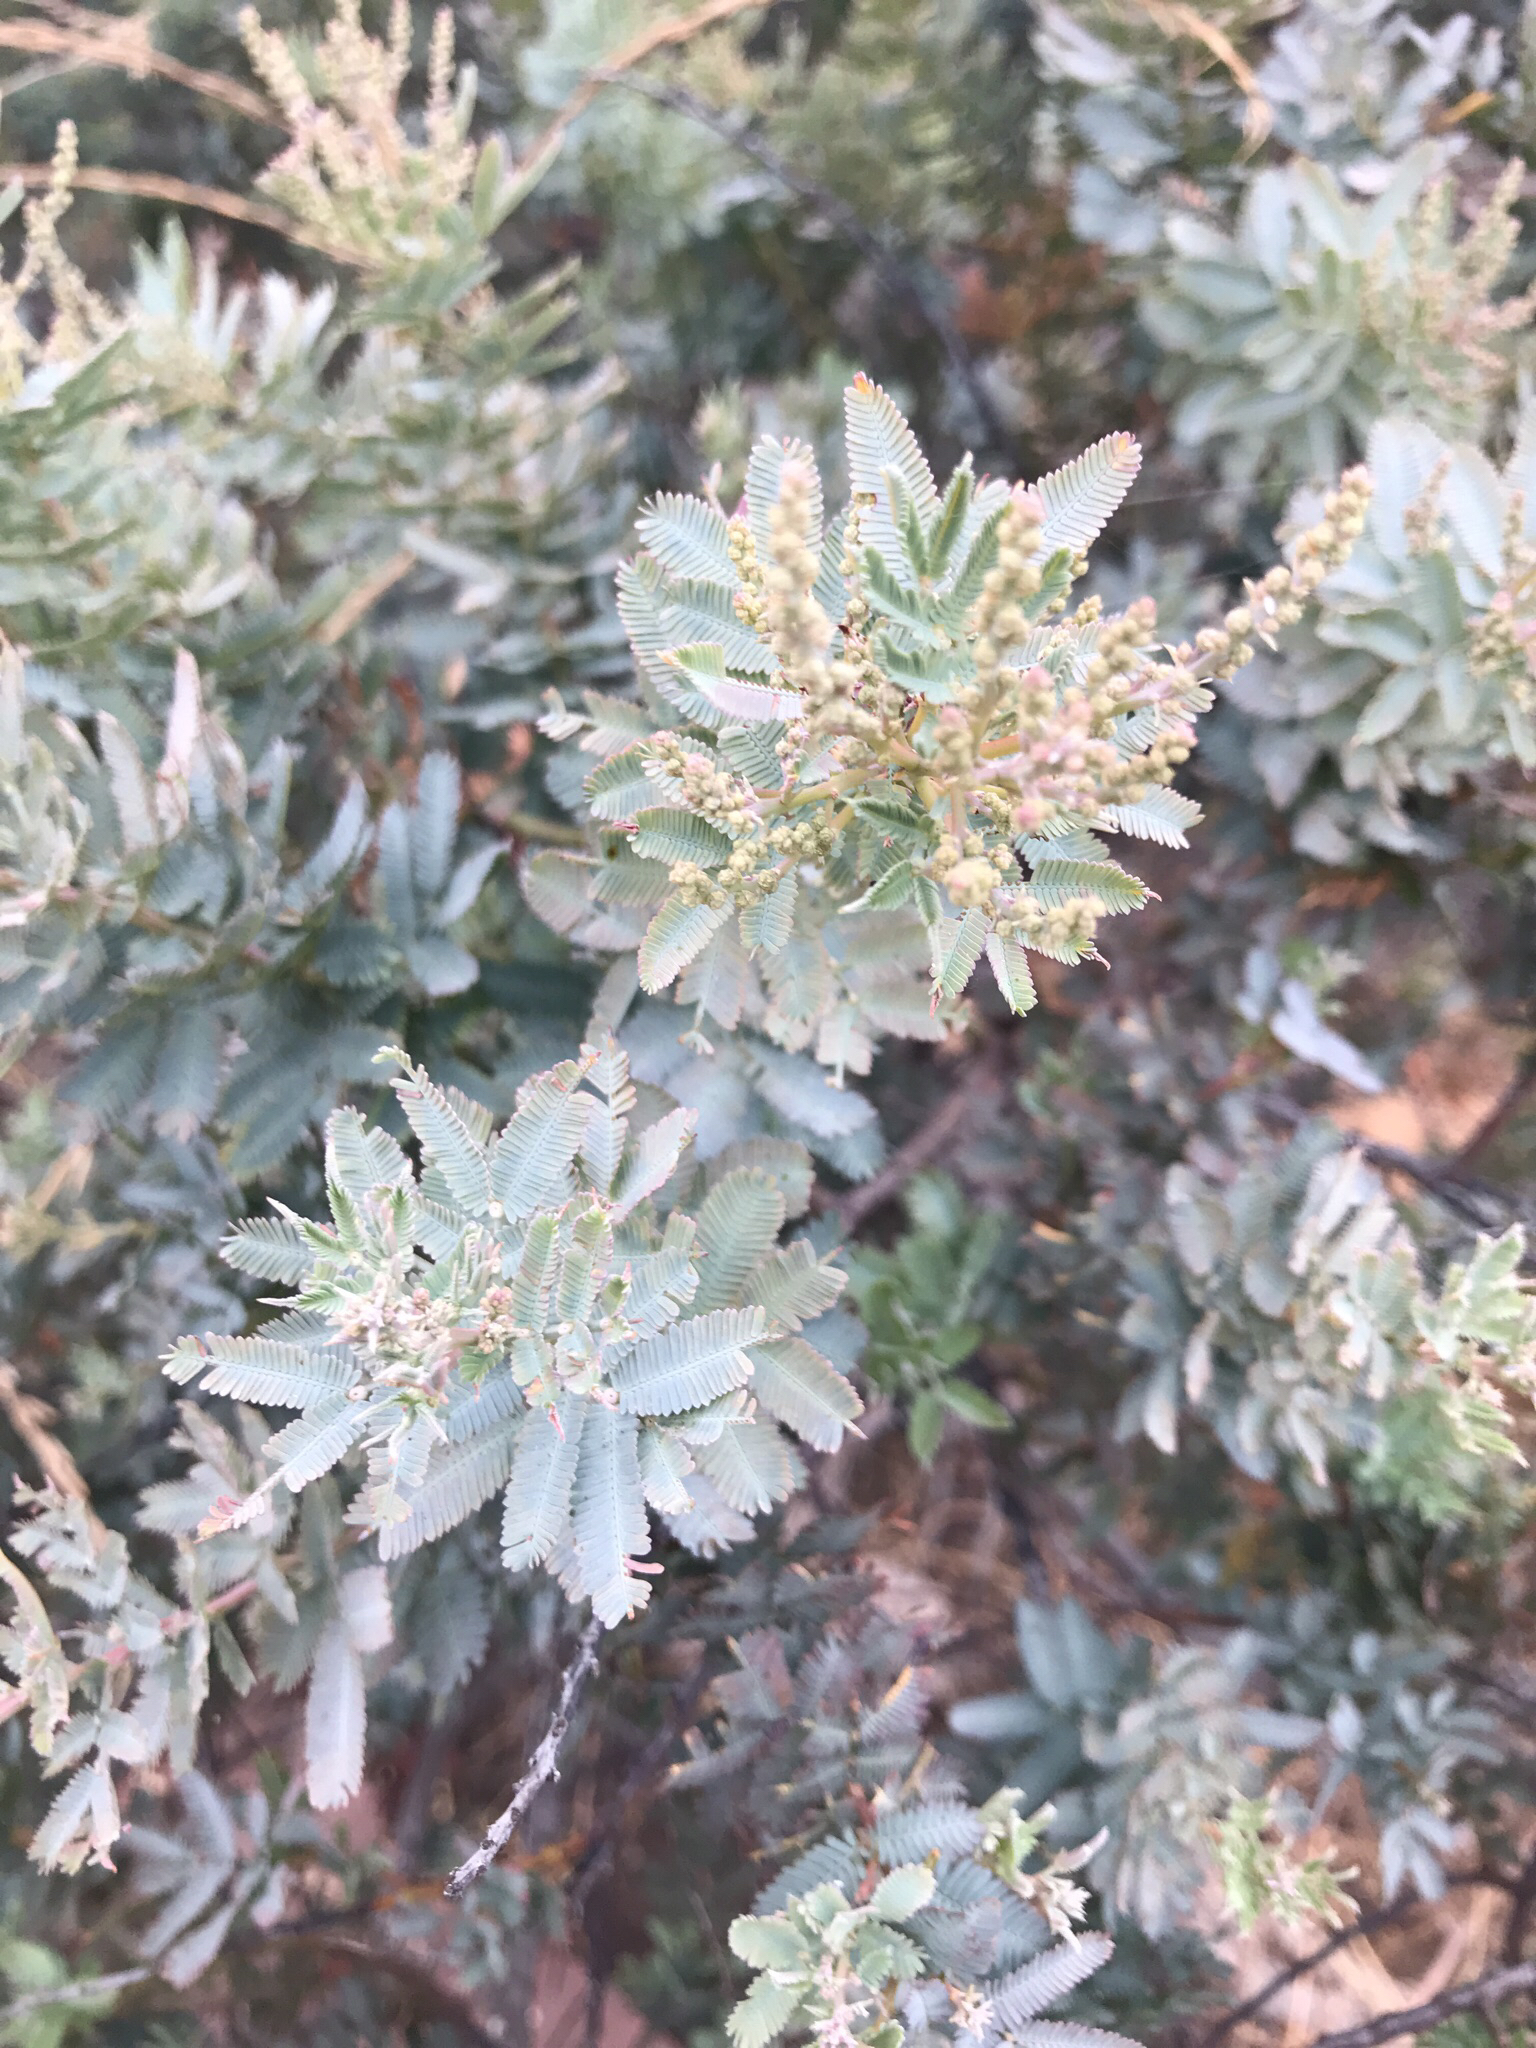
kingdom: Plantae
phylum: Tracheophyta
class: Magnoliopsida
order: Fabales
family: Fabaceae
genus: Acacia
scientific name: Acacia baileyana
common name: Cootamundra wattle
